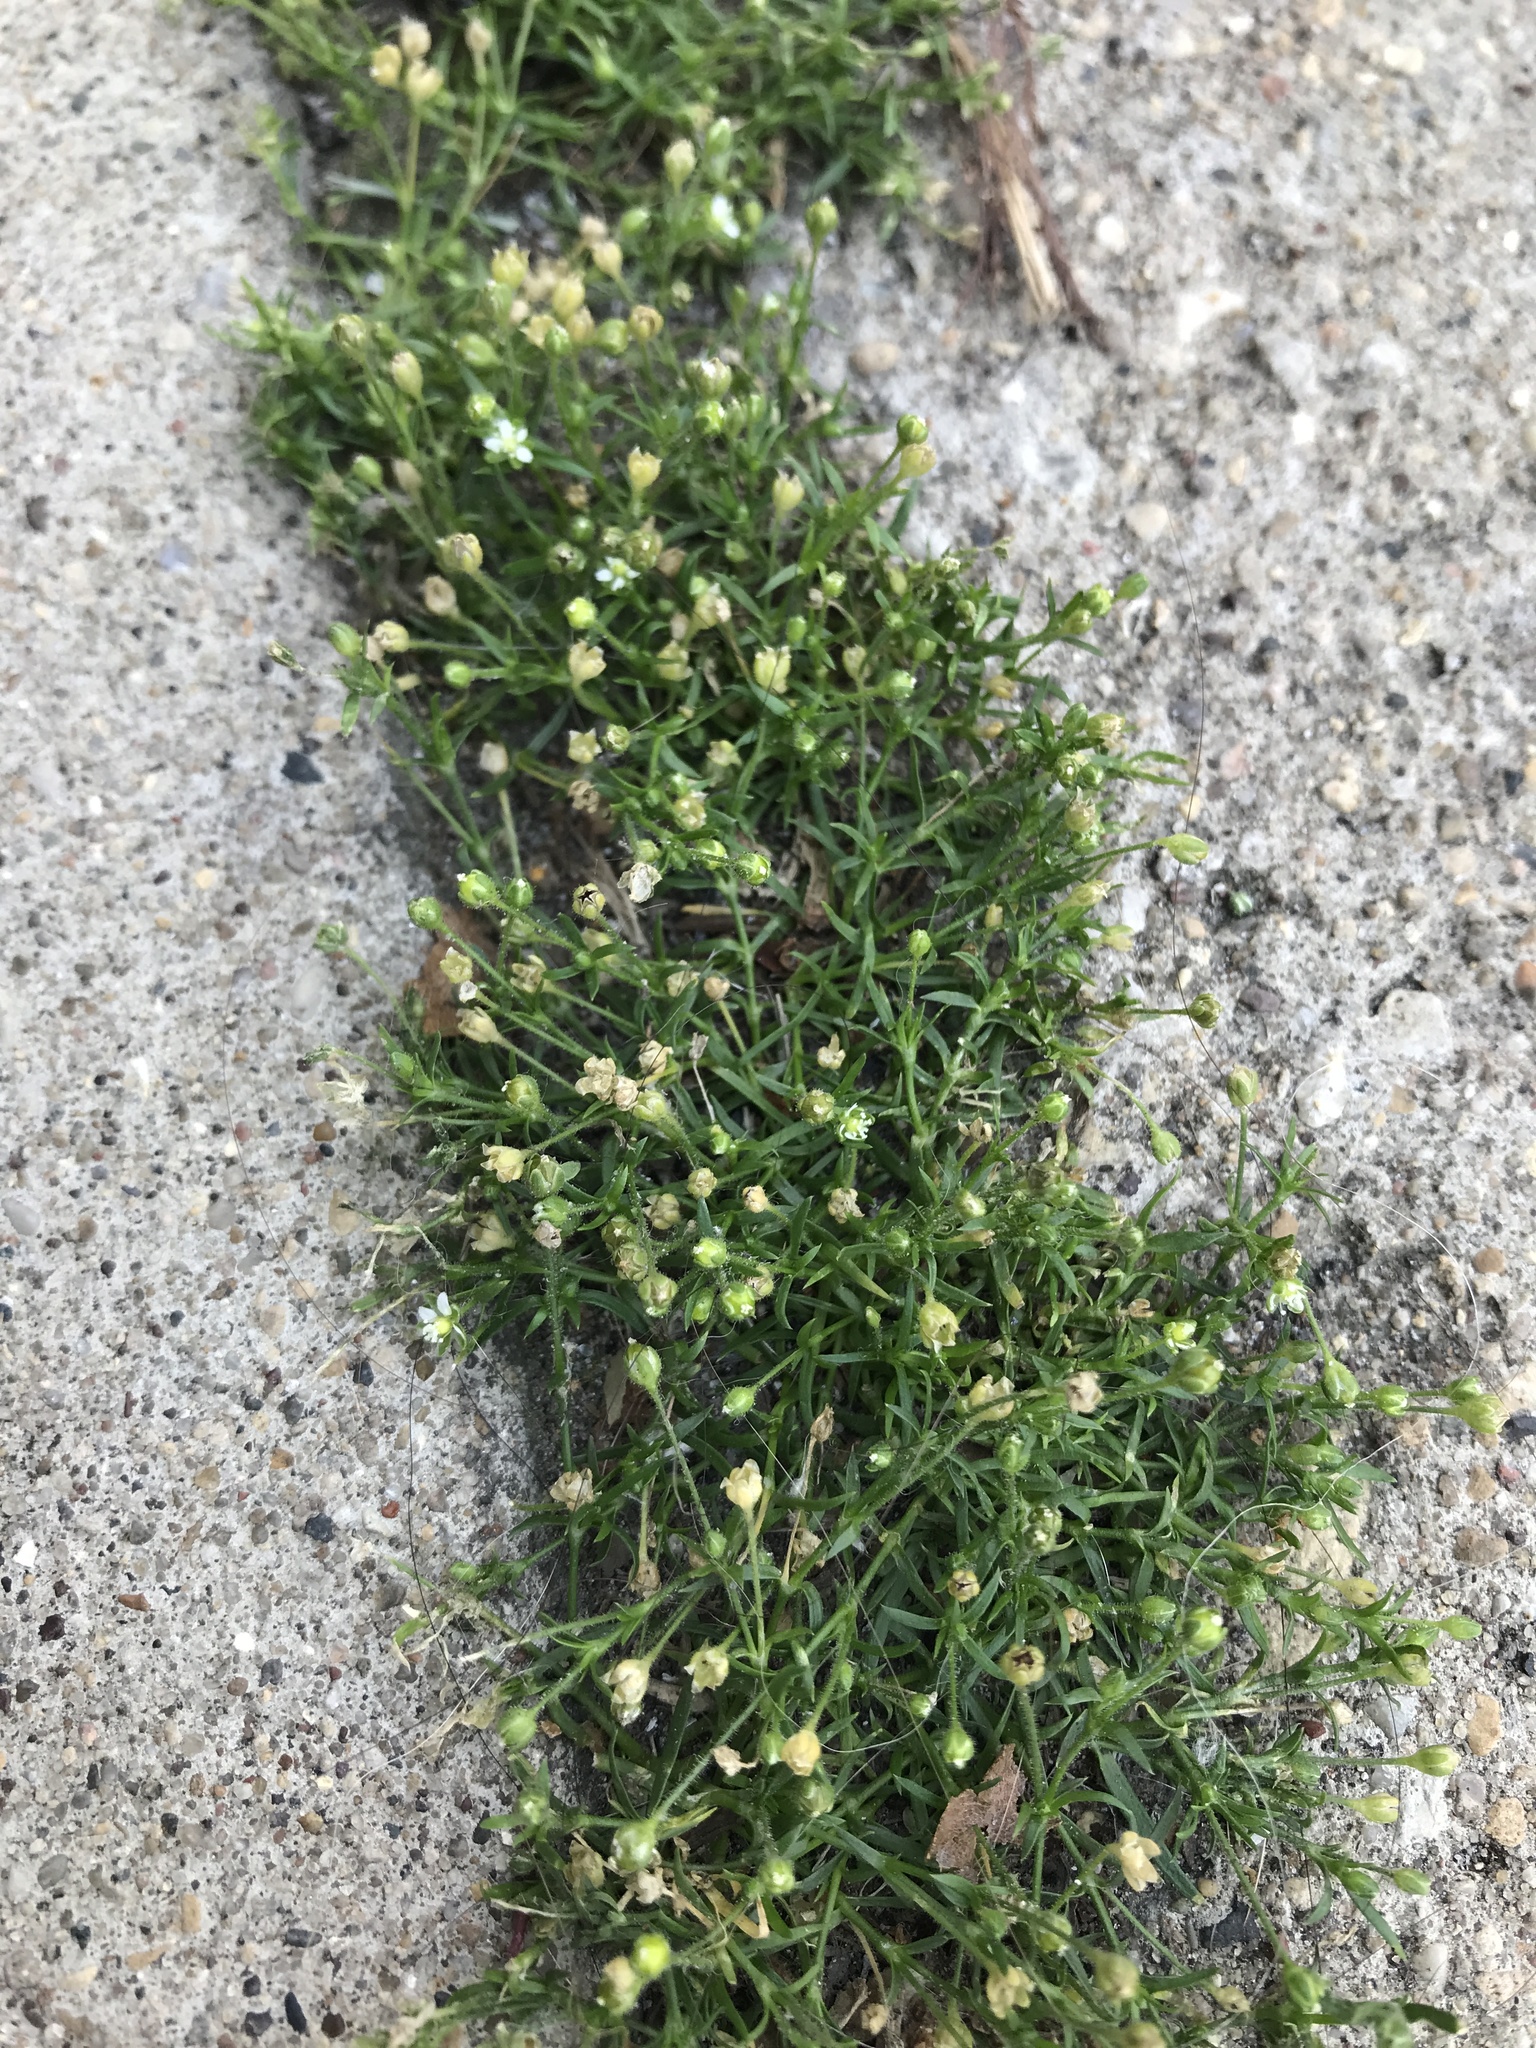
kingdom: Plantae
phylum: Tracheophyta
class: Magnoliopsida
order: Caryophyllales
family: Caryophyllaceae
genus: Sagina
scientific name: Sagina procumbens
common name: Procumbent pearlwort
